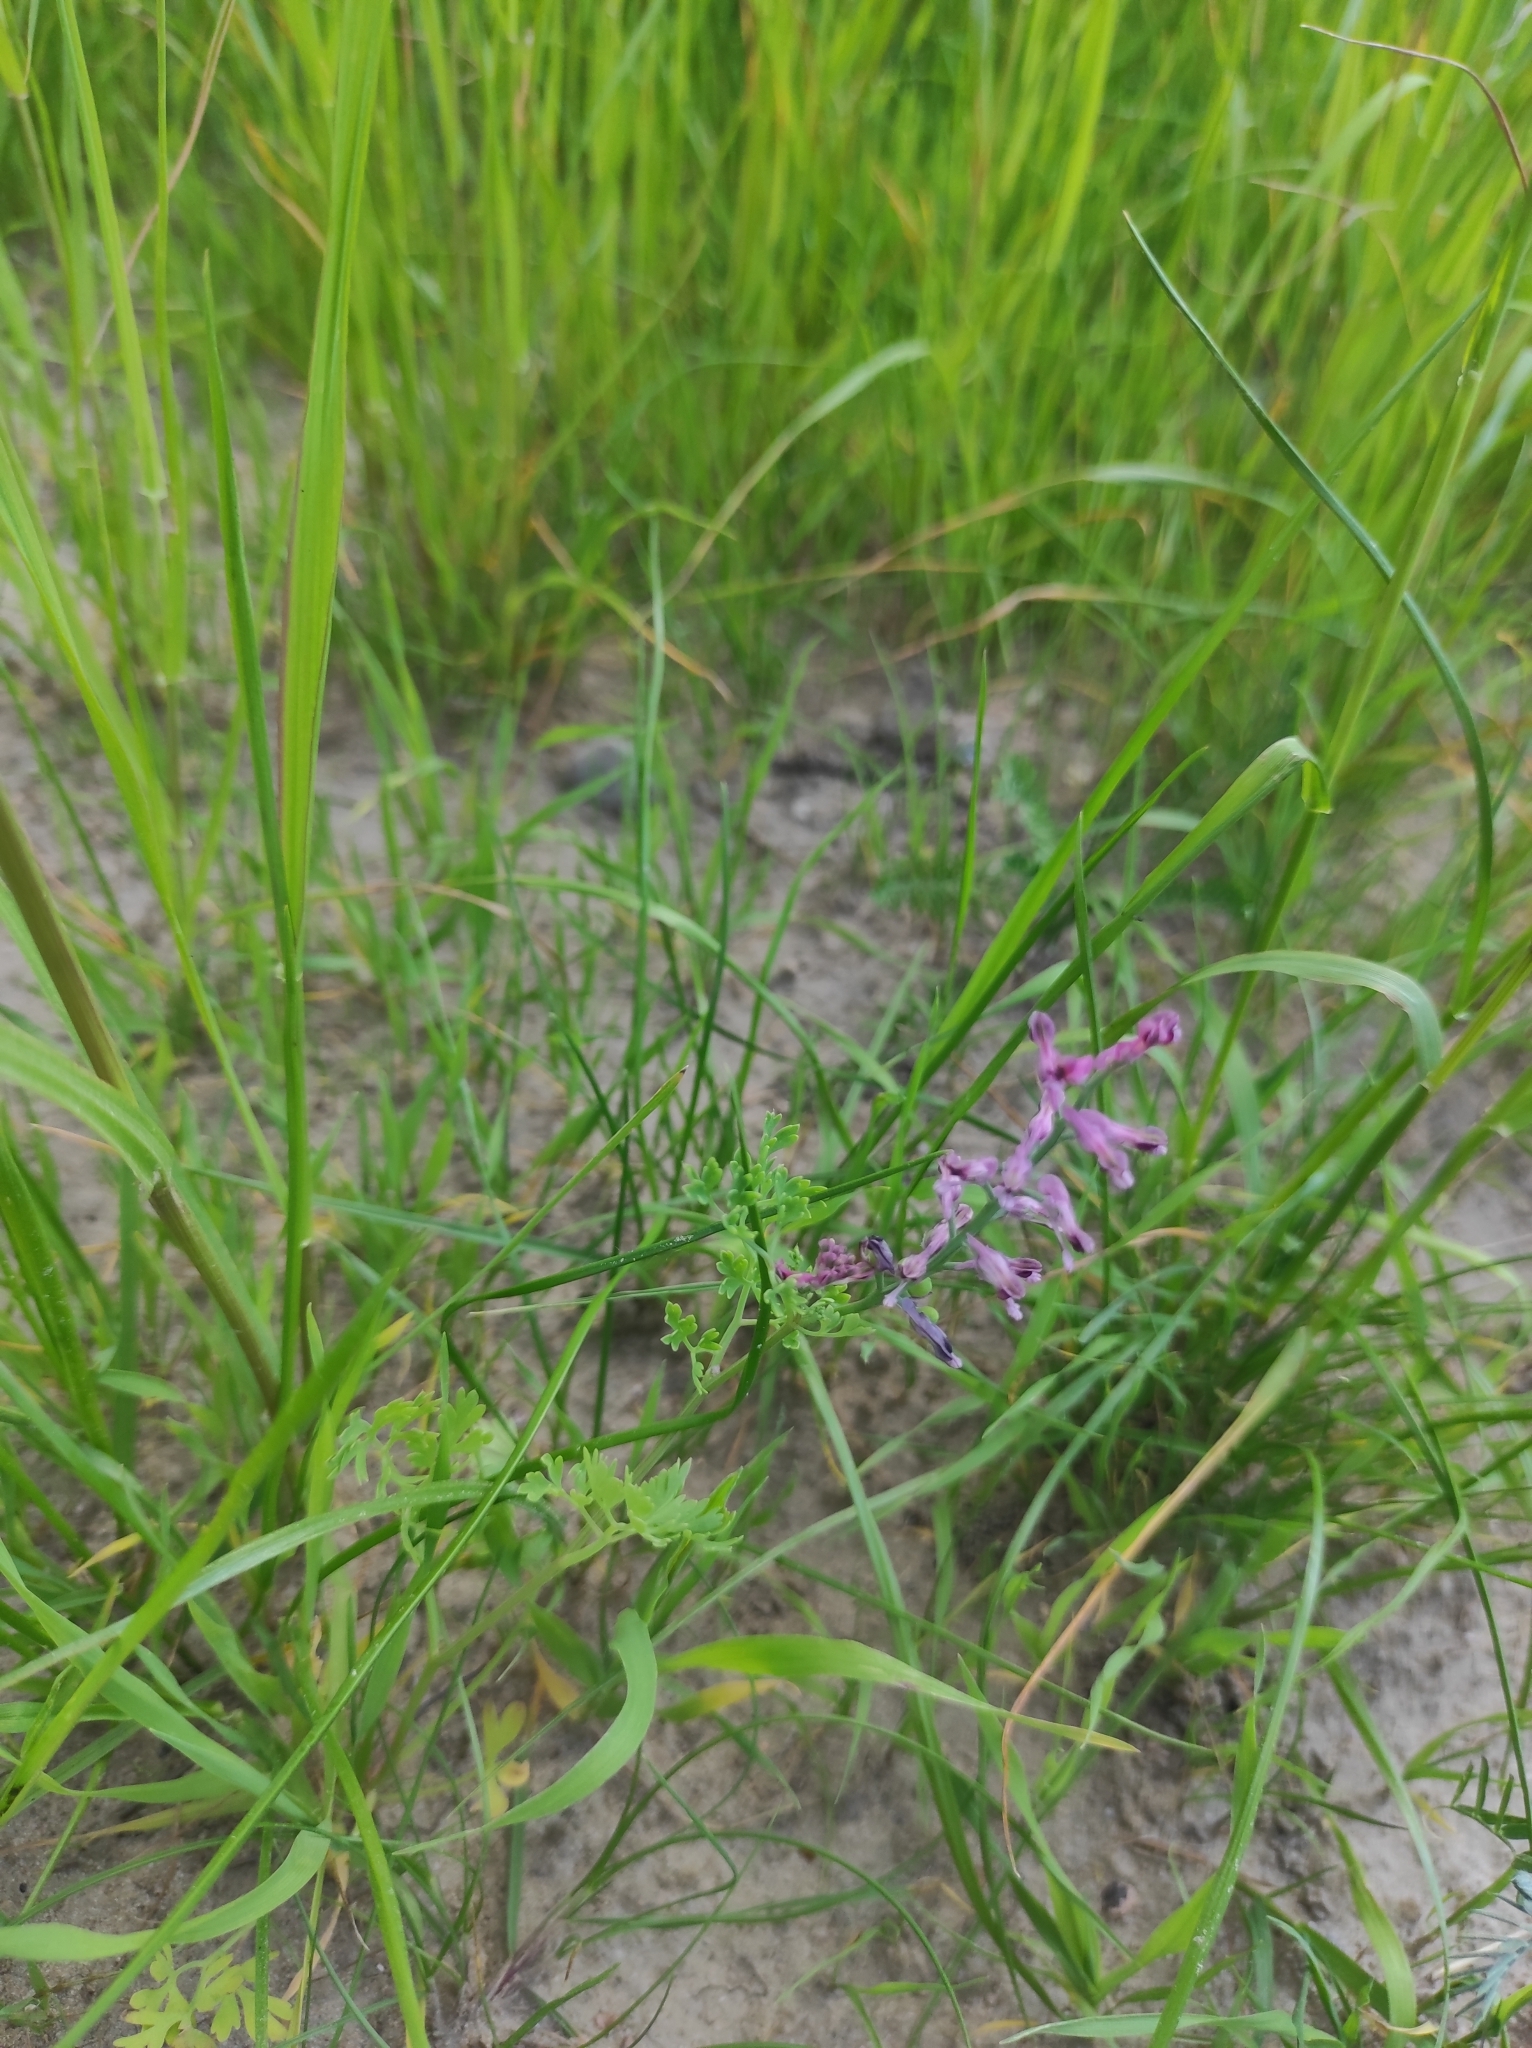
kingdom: Plantae
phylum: Tracheophyta
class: Magnoliopsida
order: Ranunculales
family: Papaveraceae
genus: Fumaria
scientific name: Fumaria officinalis
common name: Common fumitory
